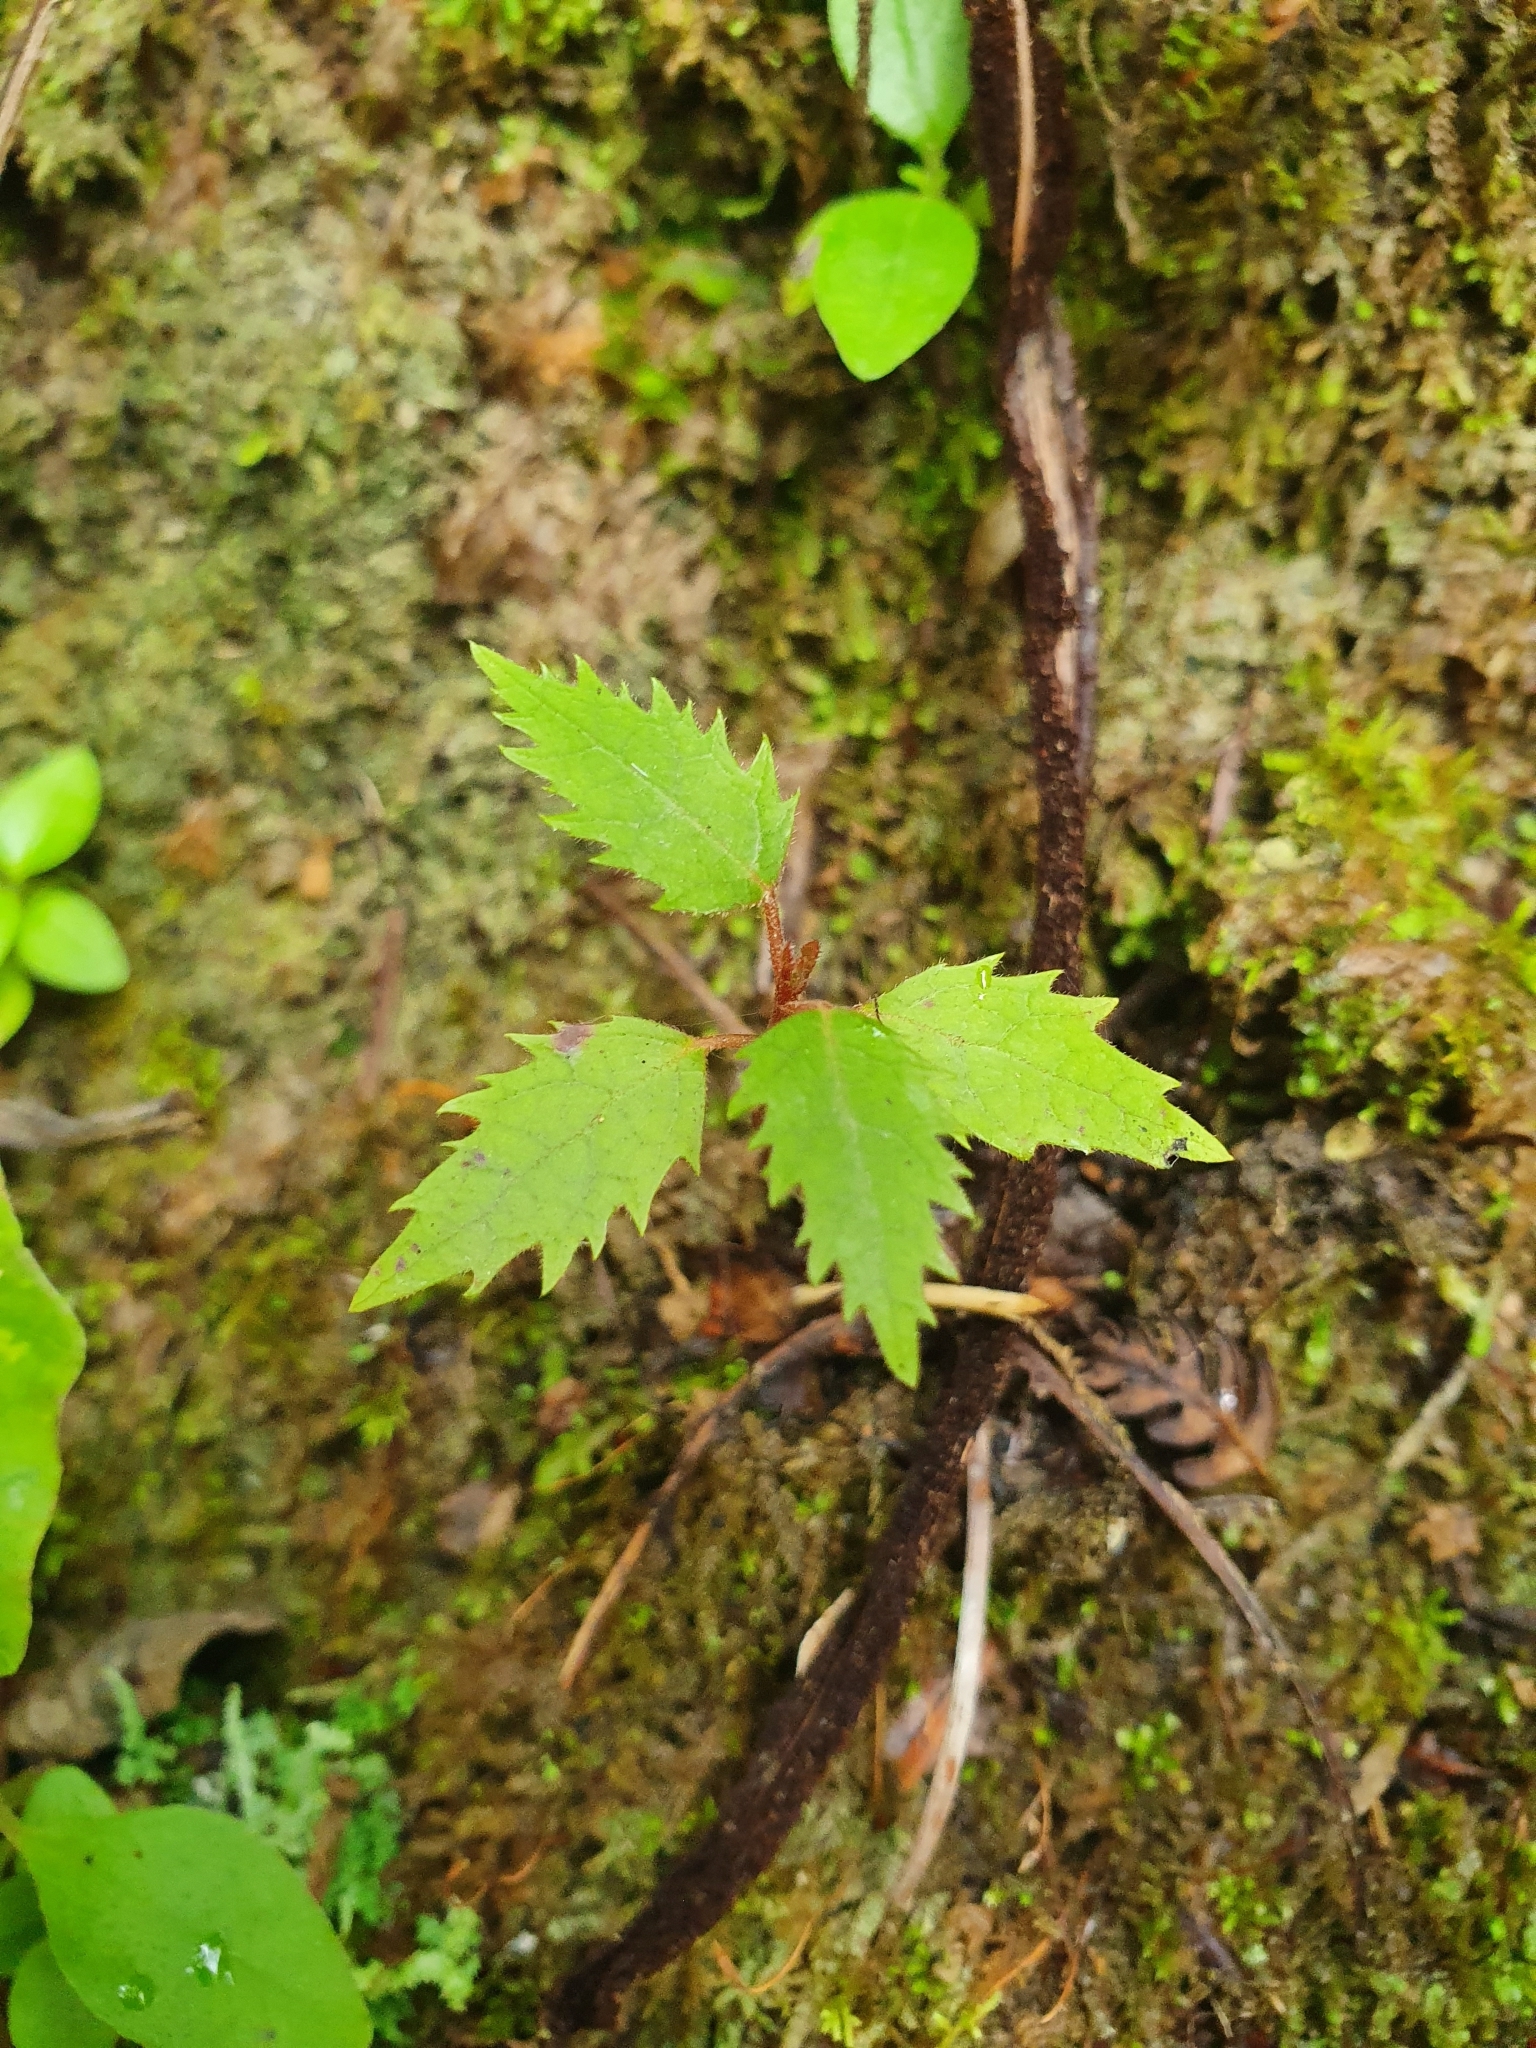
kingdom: Plantae
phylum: Tracheophyta
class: Magnoliopsida
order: Oxalidales
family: Elaeocarpaceae
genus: Aristotelia
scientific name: Aristotelia serrata
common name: New zealand wineberry
